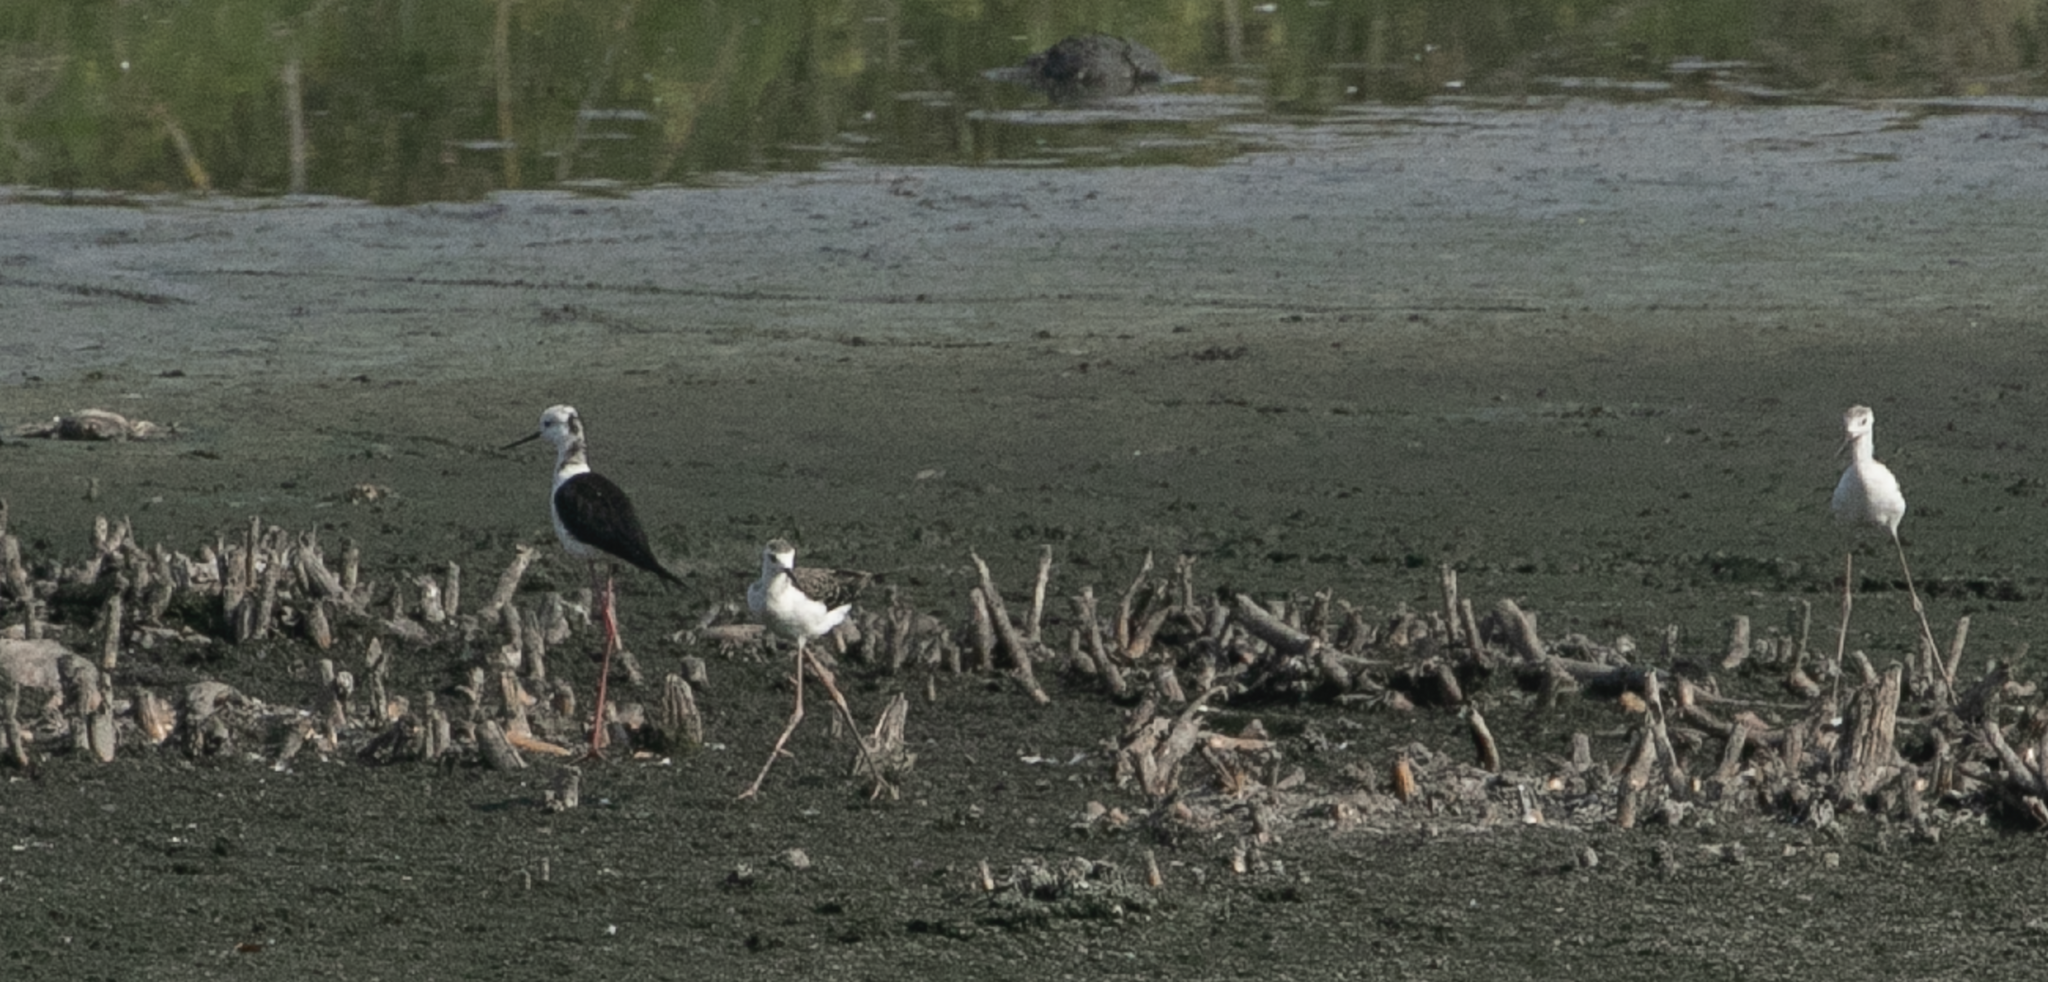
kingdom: Animalia
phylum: Chordata
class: Aves
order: Charadriiformes
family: Recurvirostridae
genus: Himantopus
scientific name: Himantopus himantopus
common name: Black-winged stilt
